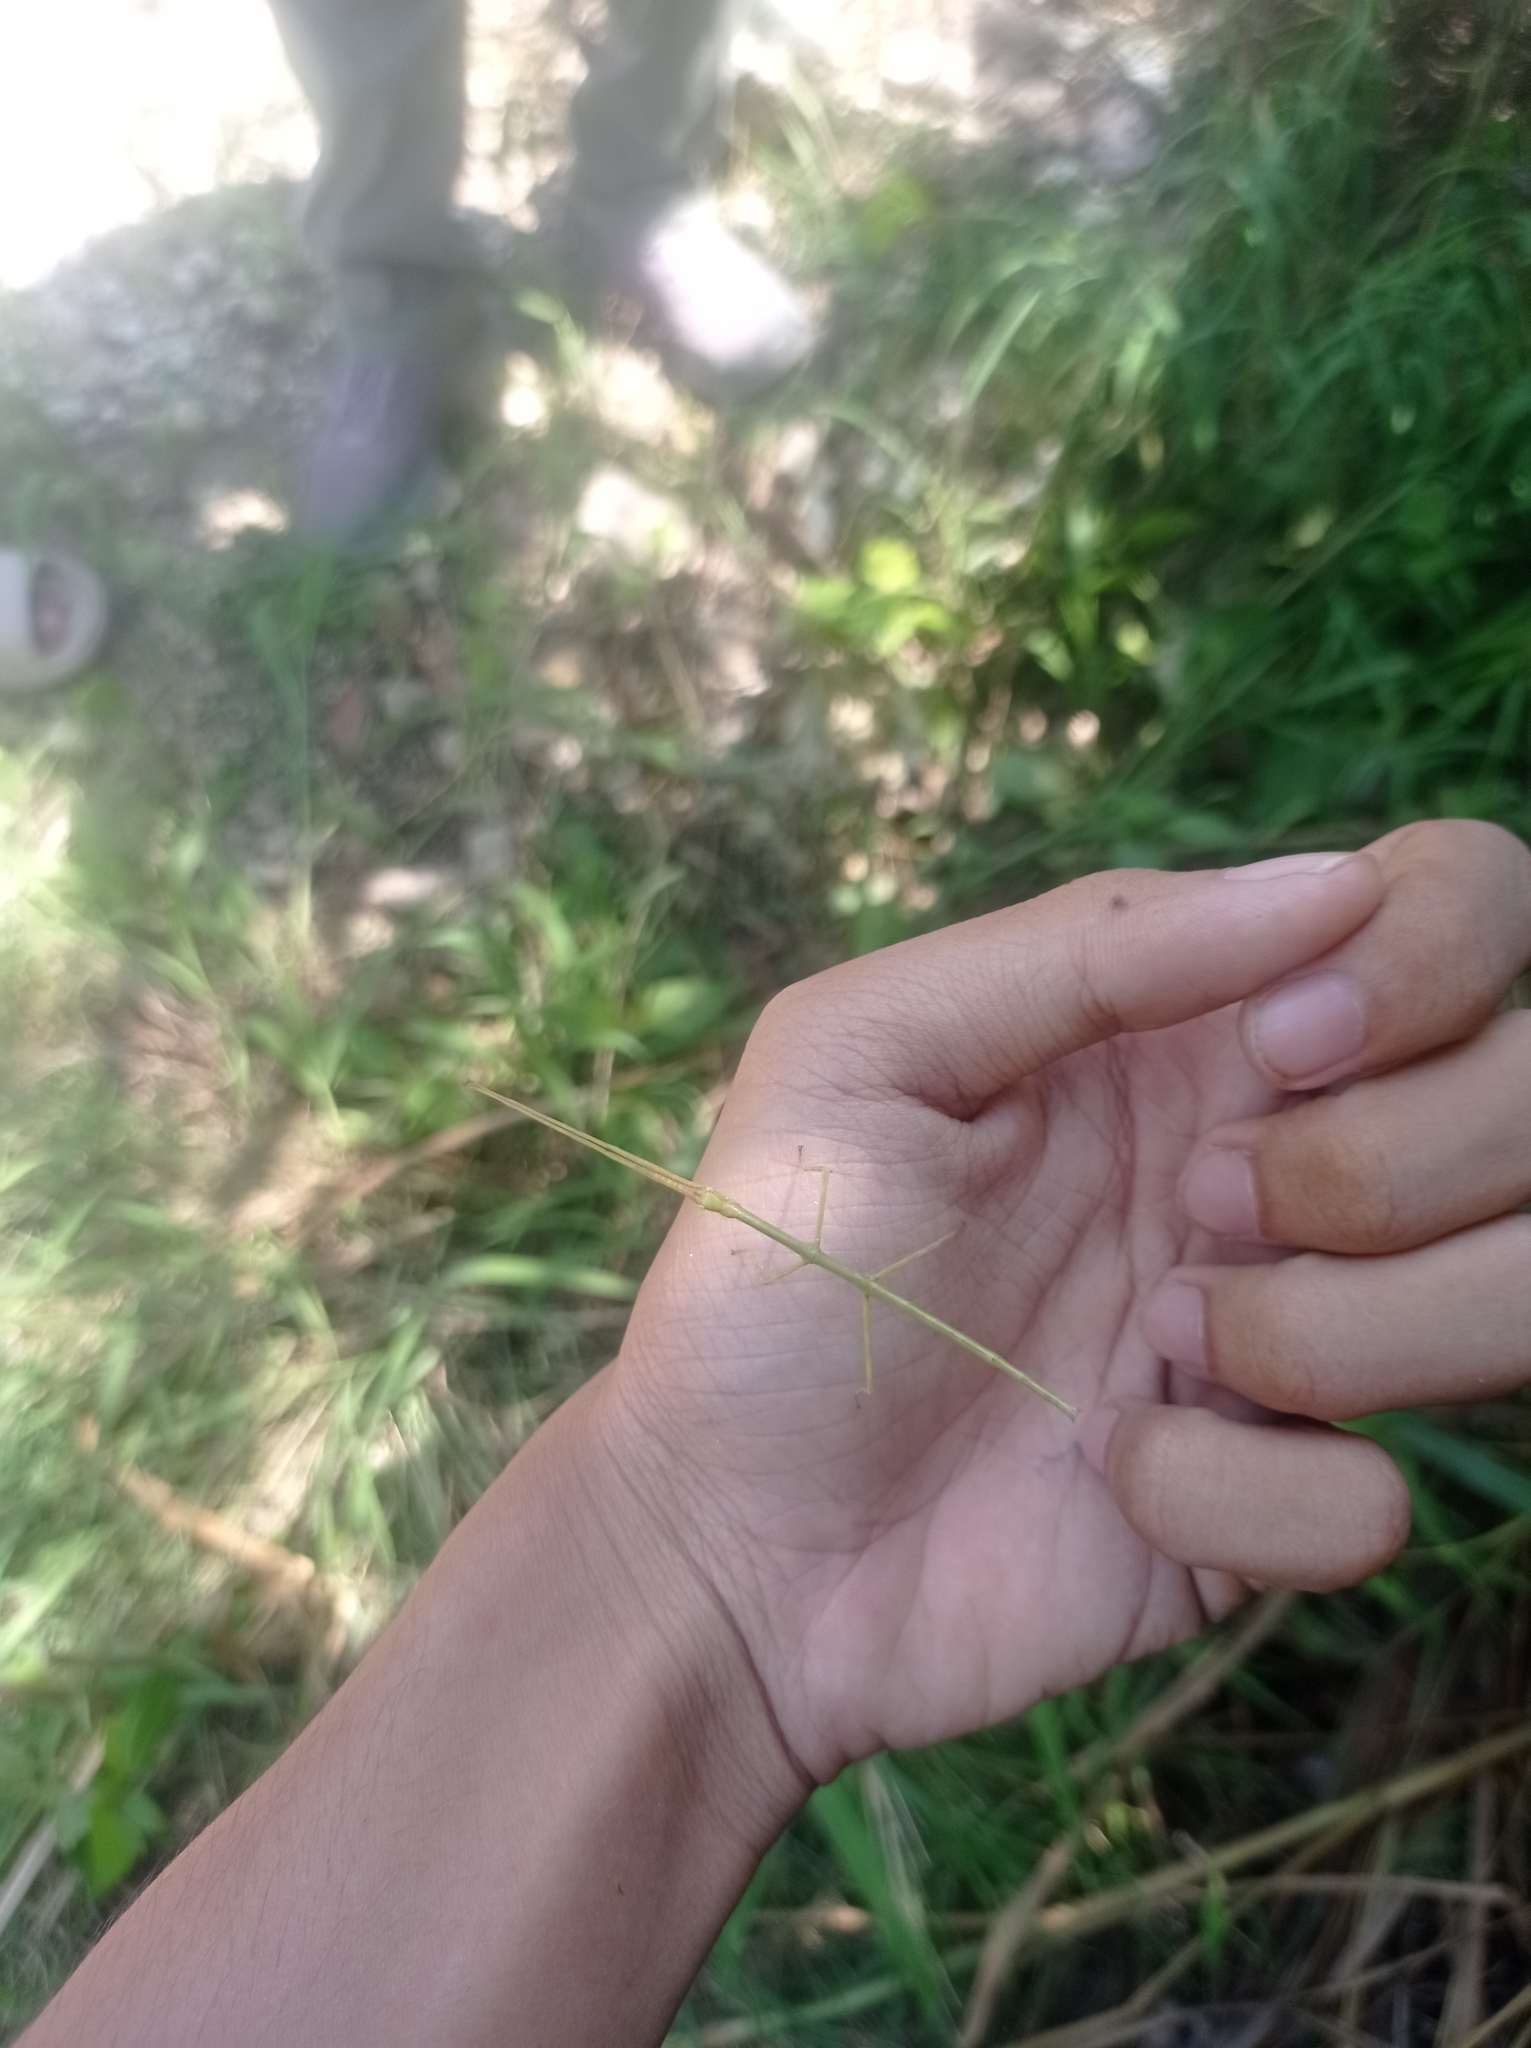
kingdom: Animalia
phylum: Arthropoda
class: Insecta
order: Phasmida
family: Phasmatidae
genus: Nesiophasma
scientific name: Nesiophasma
